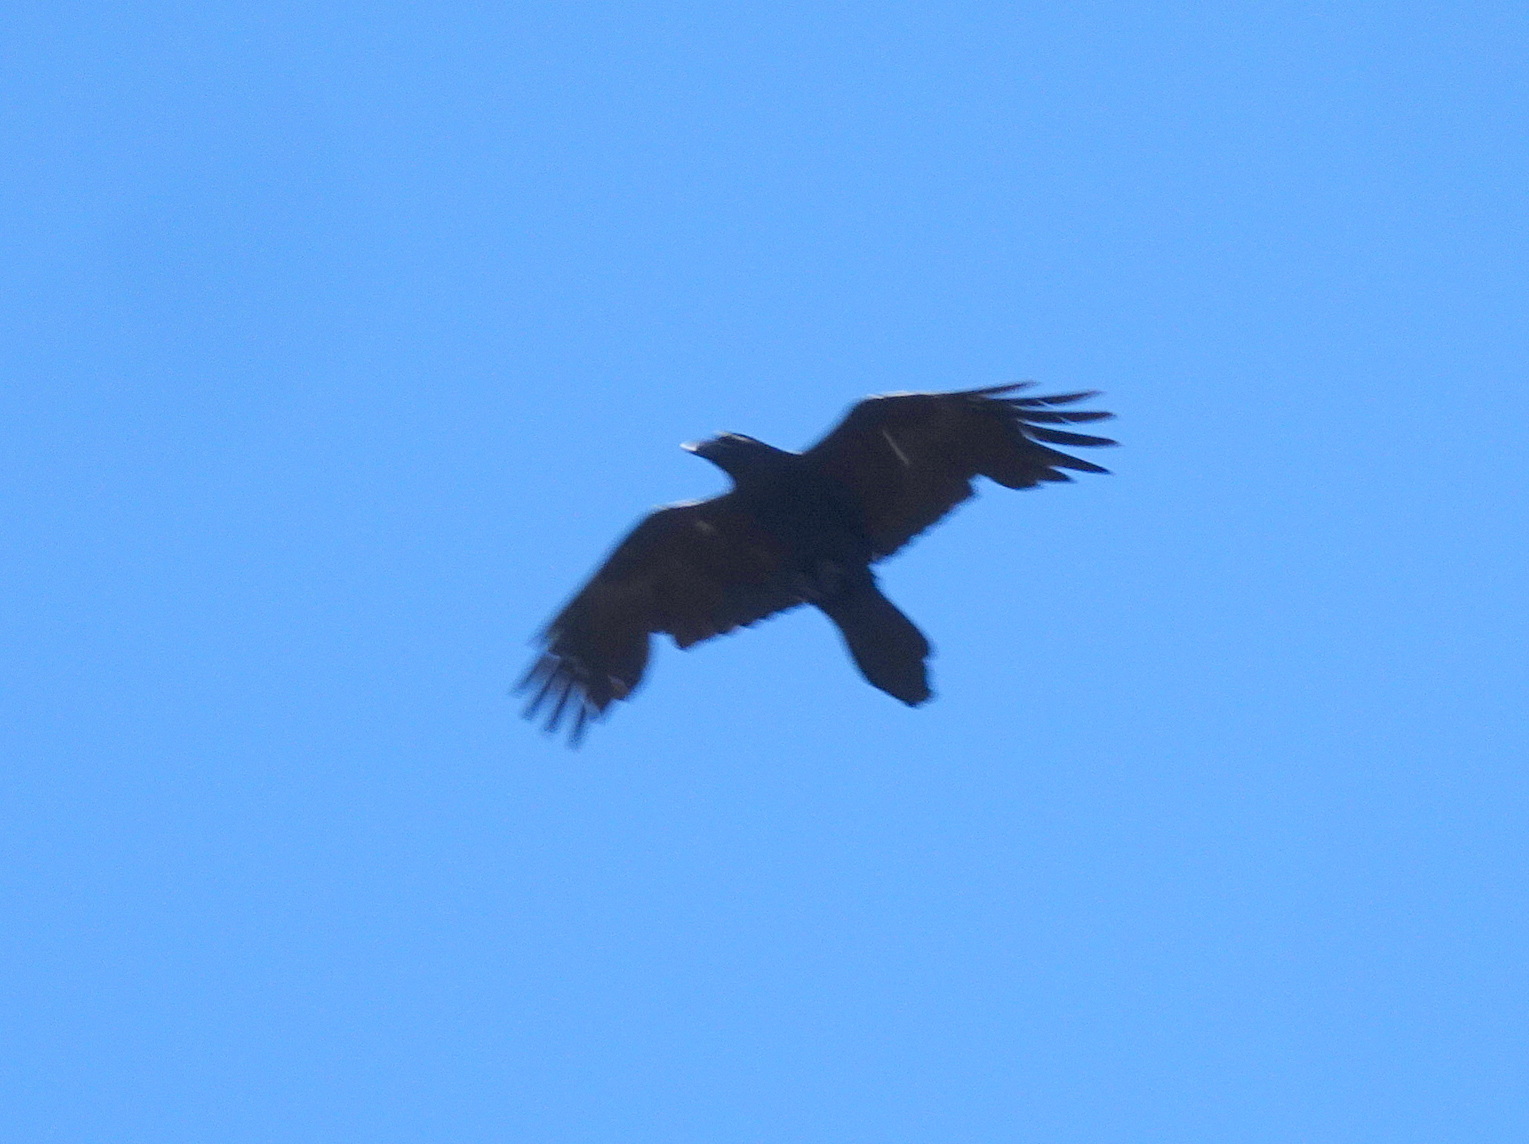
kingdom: Animalia
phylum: Chordata
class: Aves
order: Passeriformes
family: Corvidae
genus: Corvus
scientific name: Corvus corax
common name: Common raven
